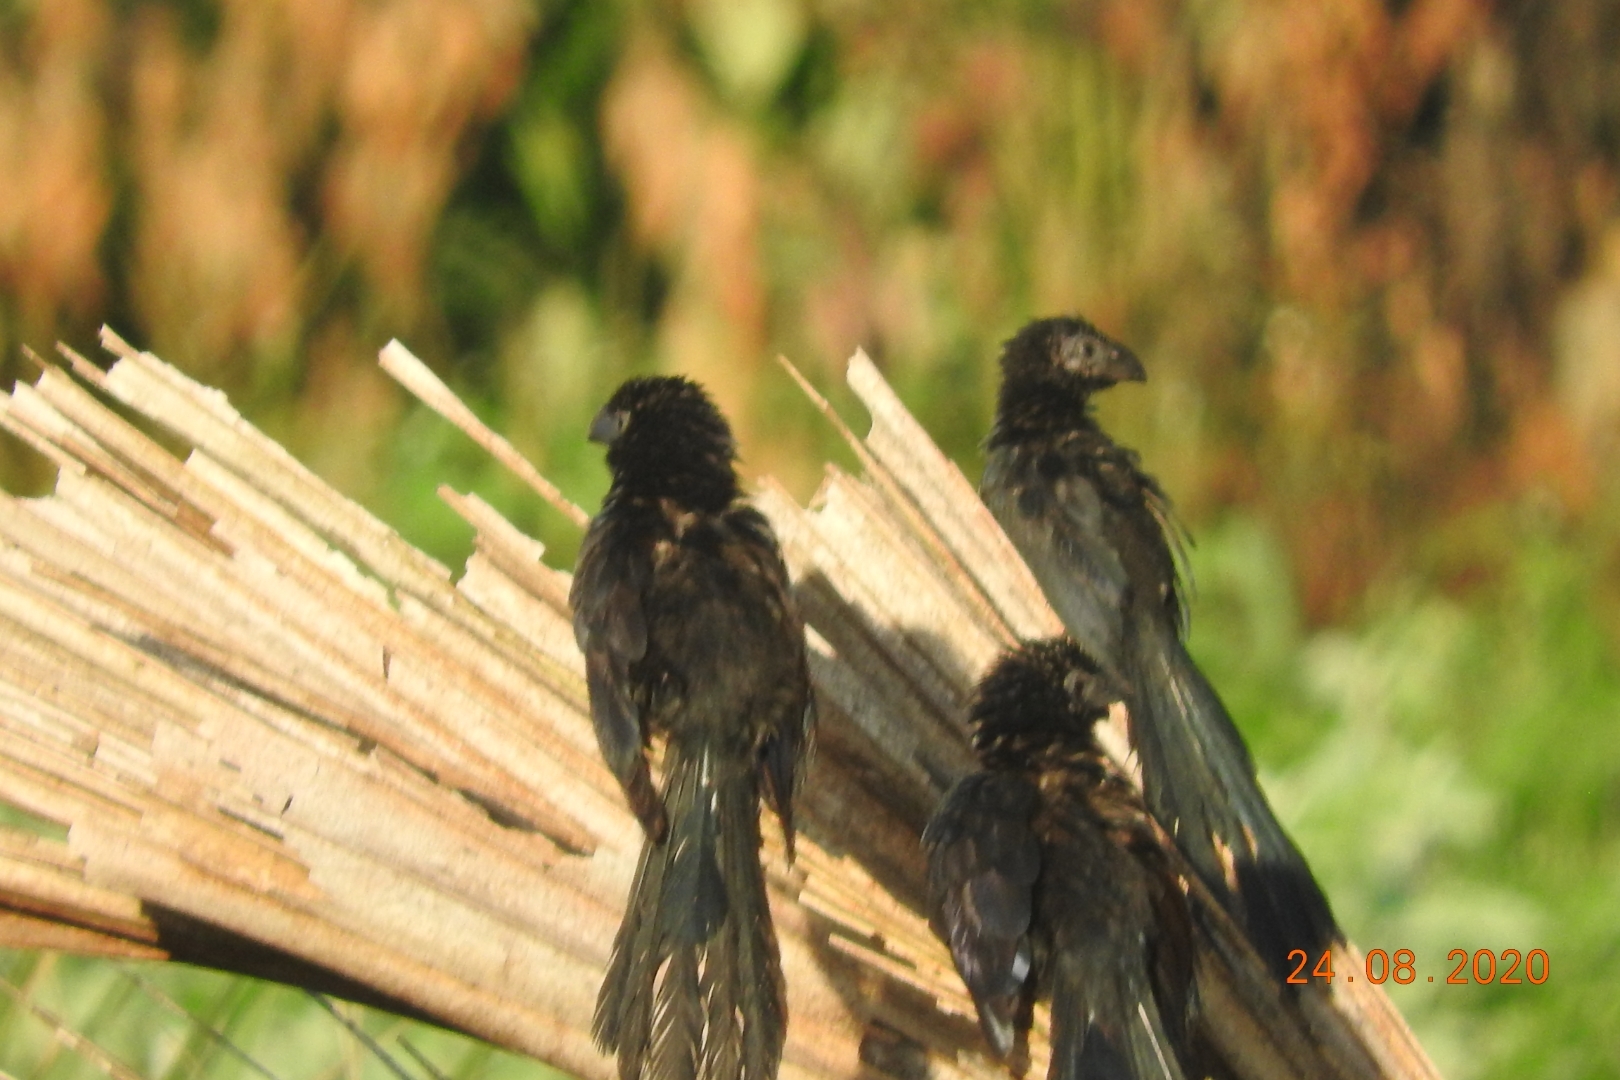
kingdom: Animalia
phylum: Chordata
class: Aves
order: Cuculiformes
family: Cuculidae
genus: Crotophaga
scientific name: Crotophaga sulcirostris
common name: Groove-billed ani
